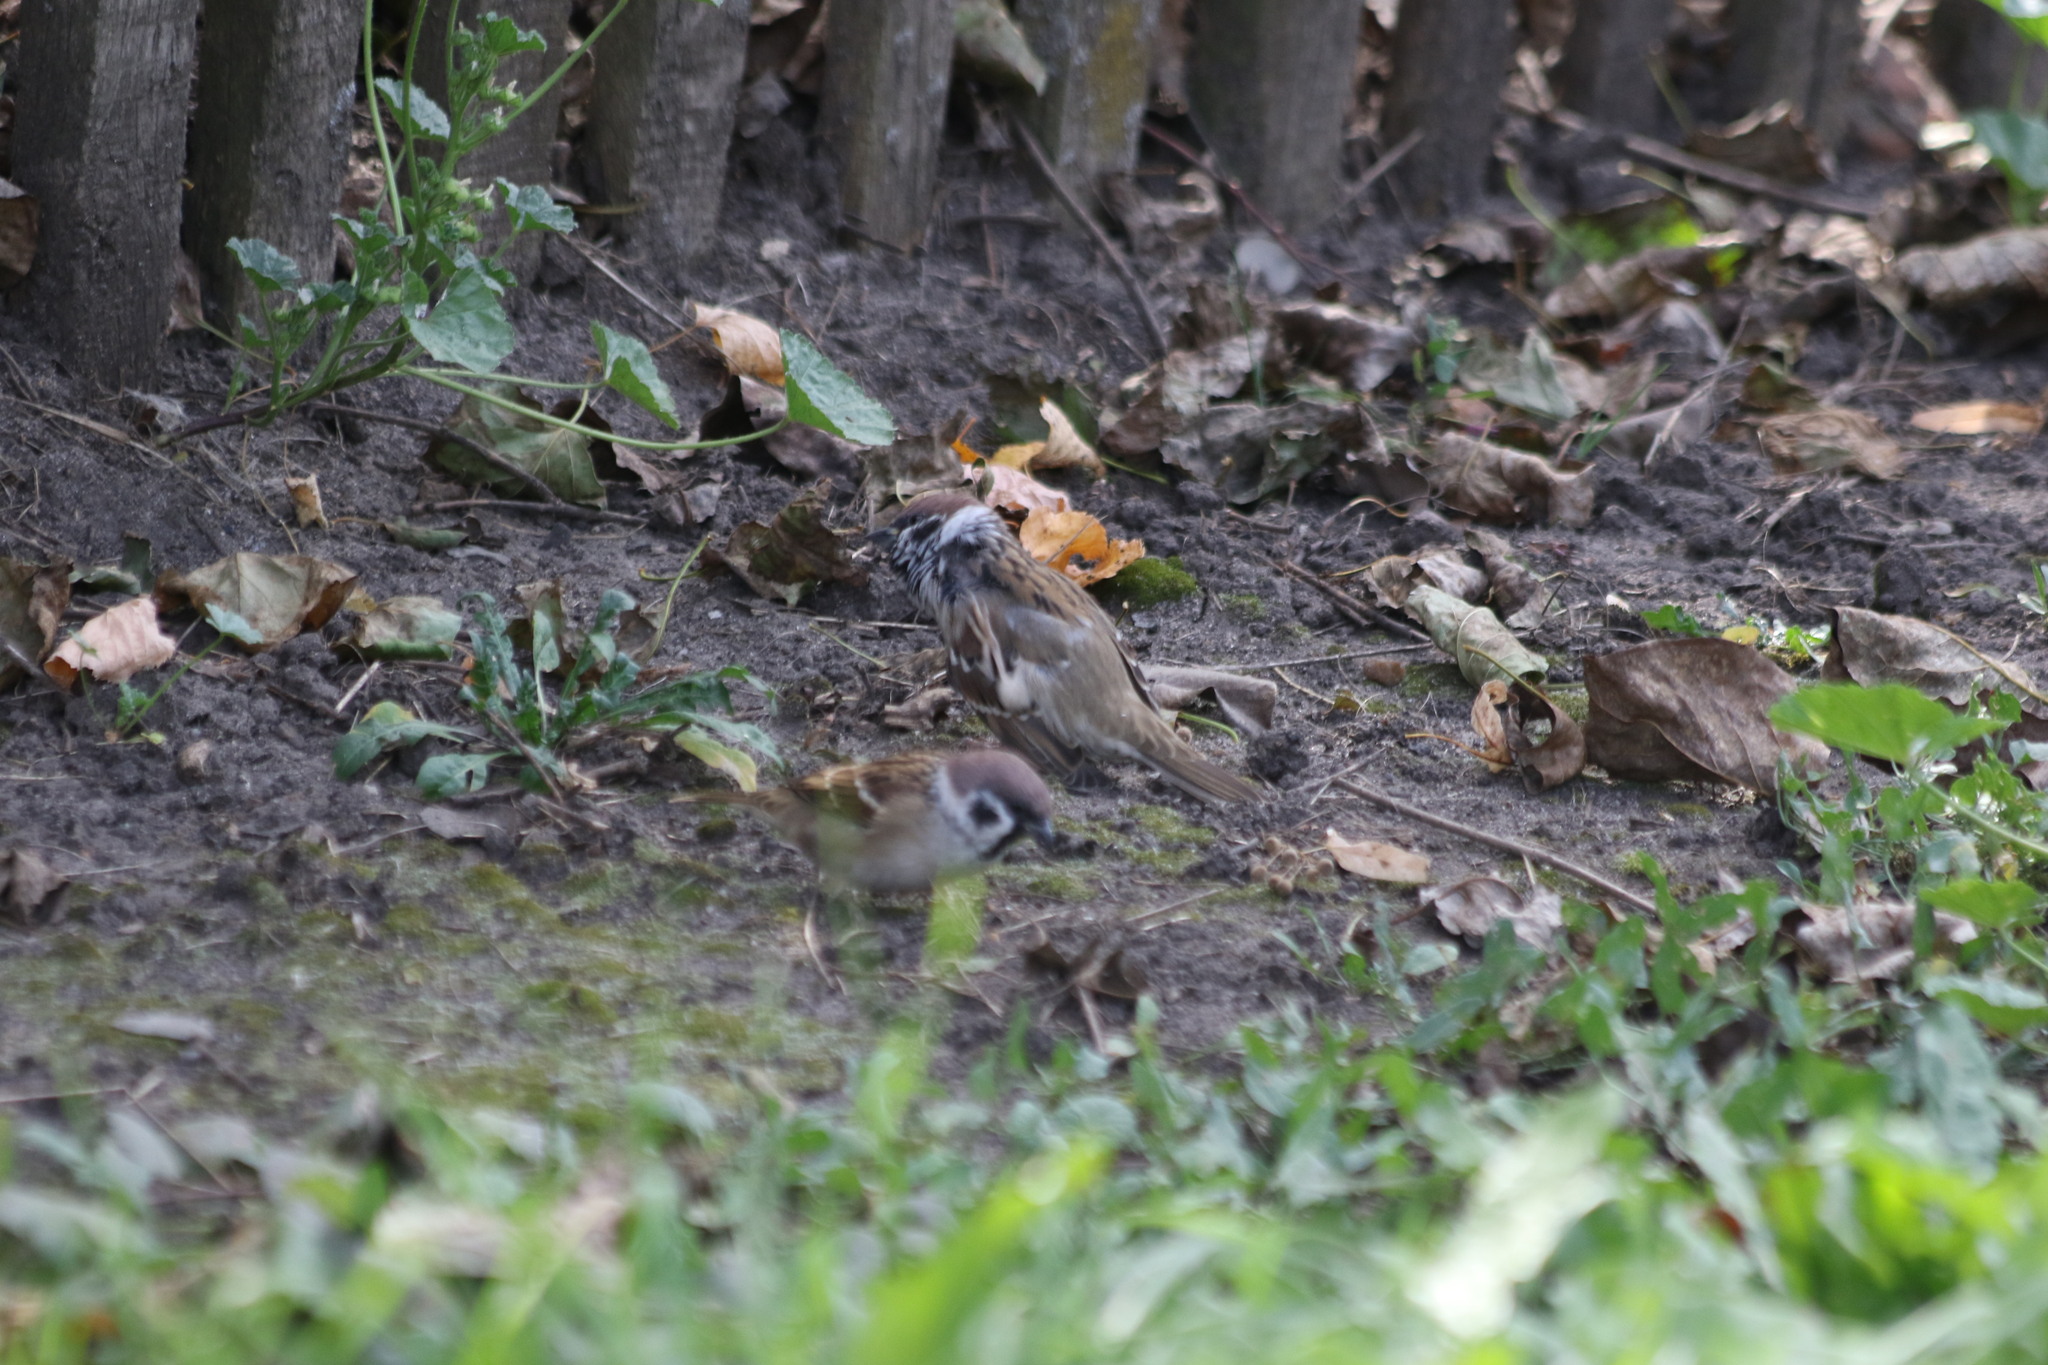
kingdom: Animalia
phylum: Chordata
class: Aves
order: Passeriformes
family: Passeridae
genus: Passer
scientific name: Passer montanus
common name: Eurasian tree sparrow
